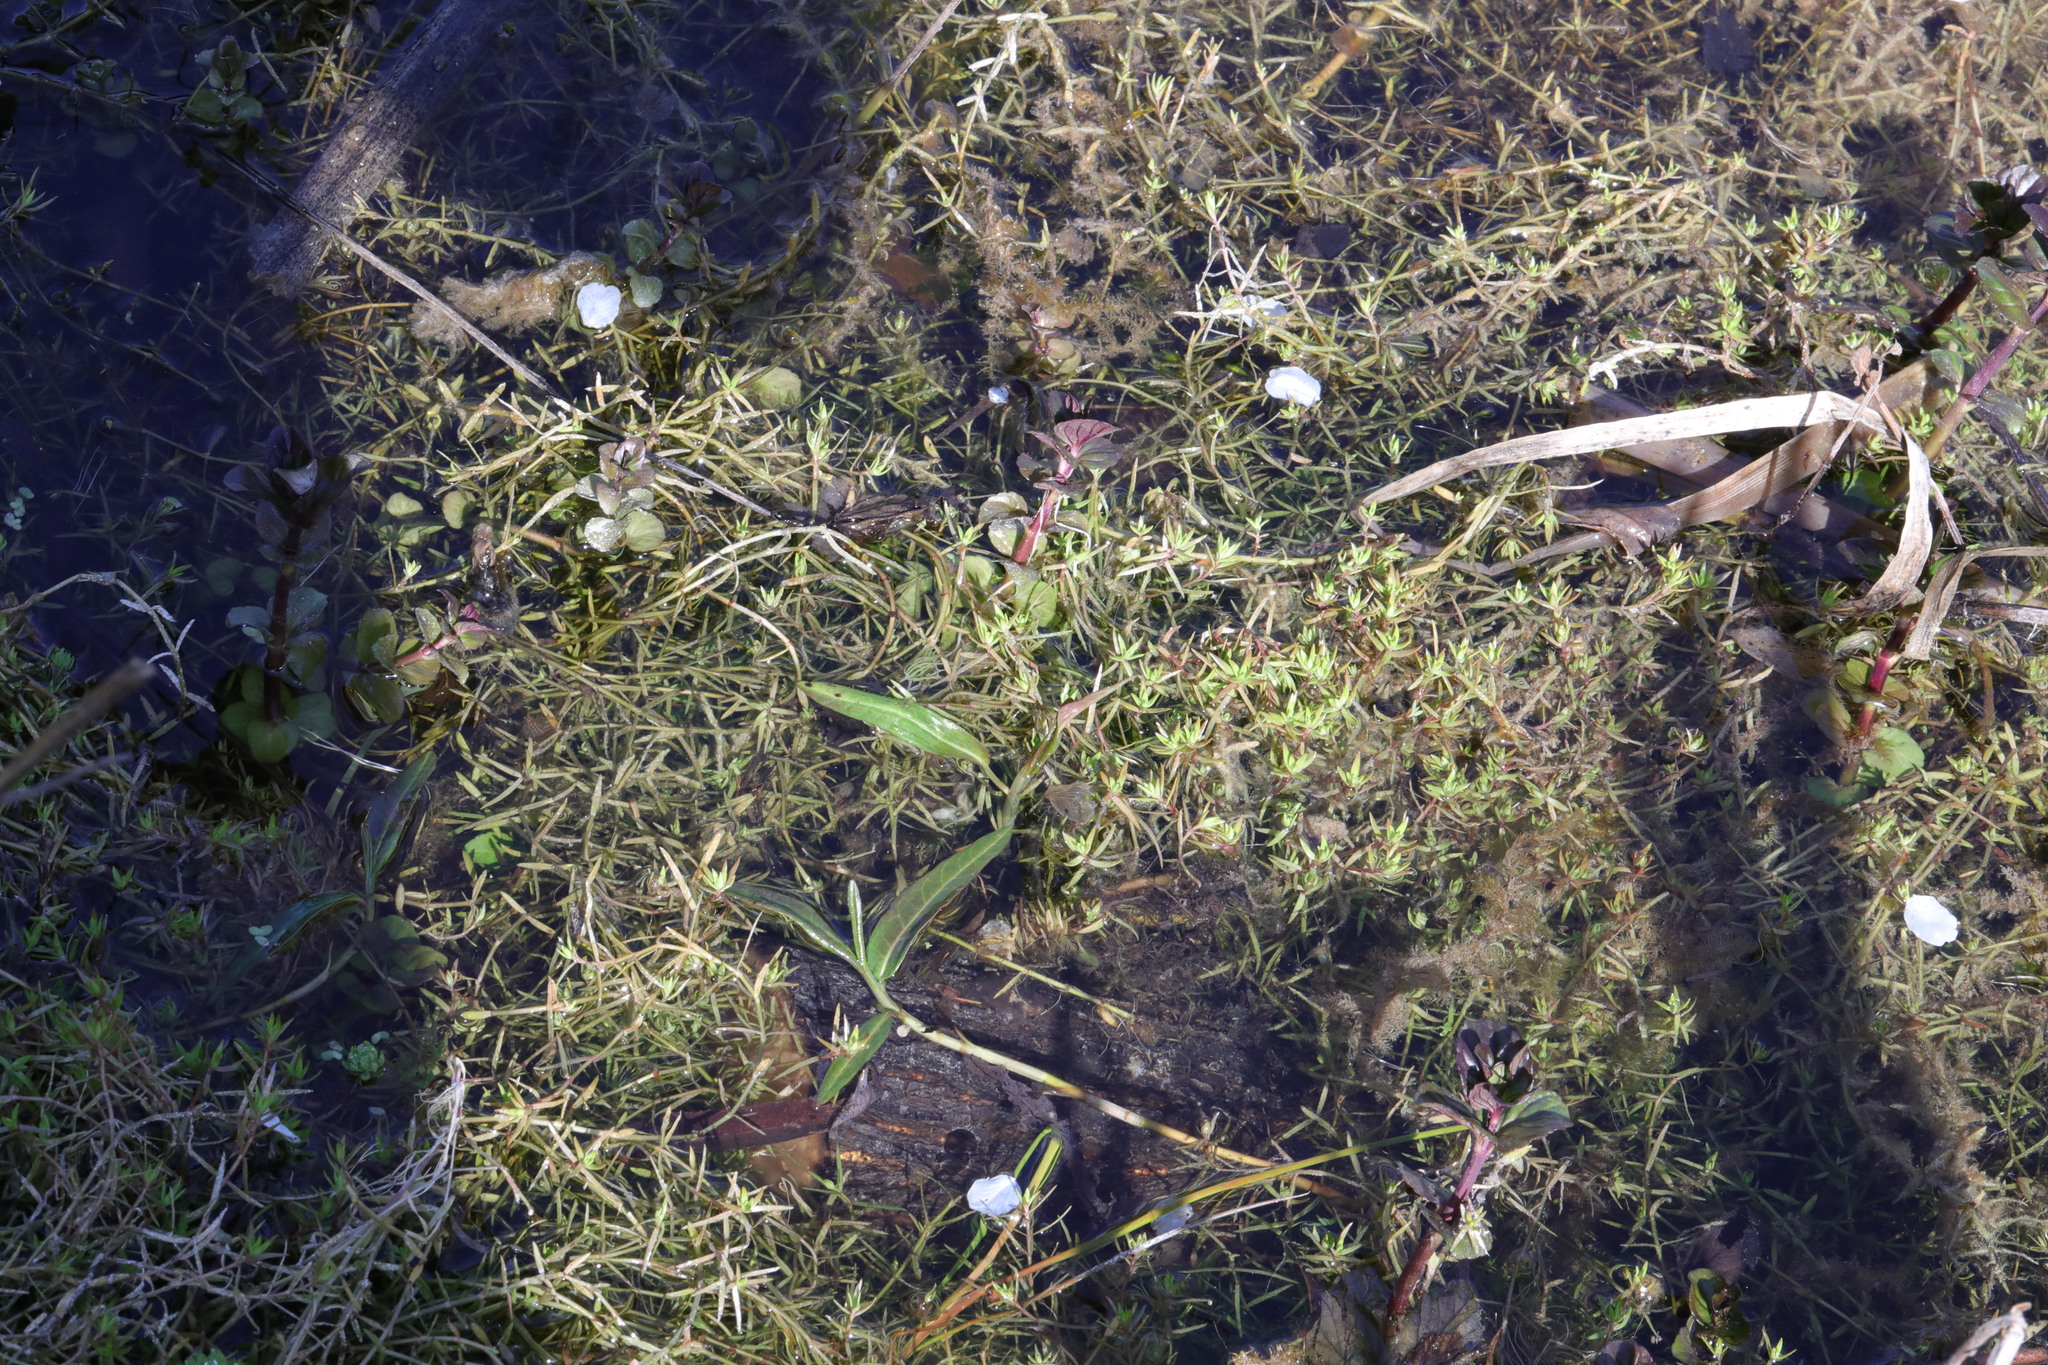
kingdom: Plantae
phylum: Tracheophyta
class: Magnoliopsida
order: Lamiales
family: Lamiaceae
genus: Mentha
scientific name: Mentha aquatica
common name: Water mint
